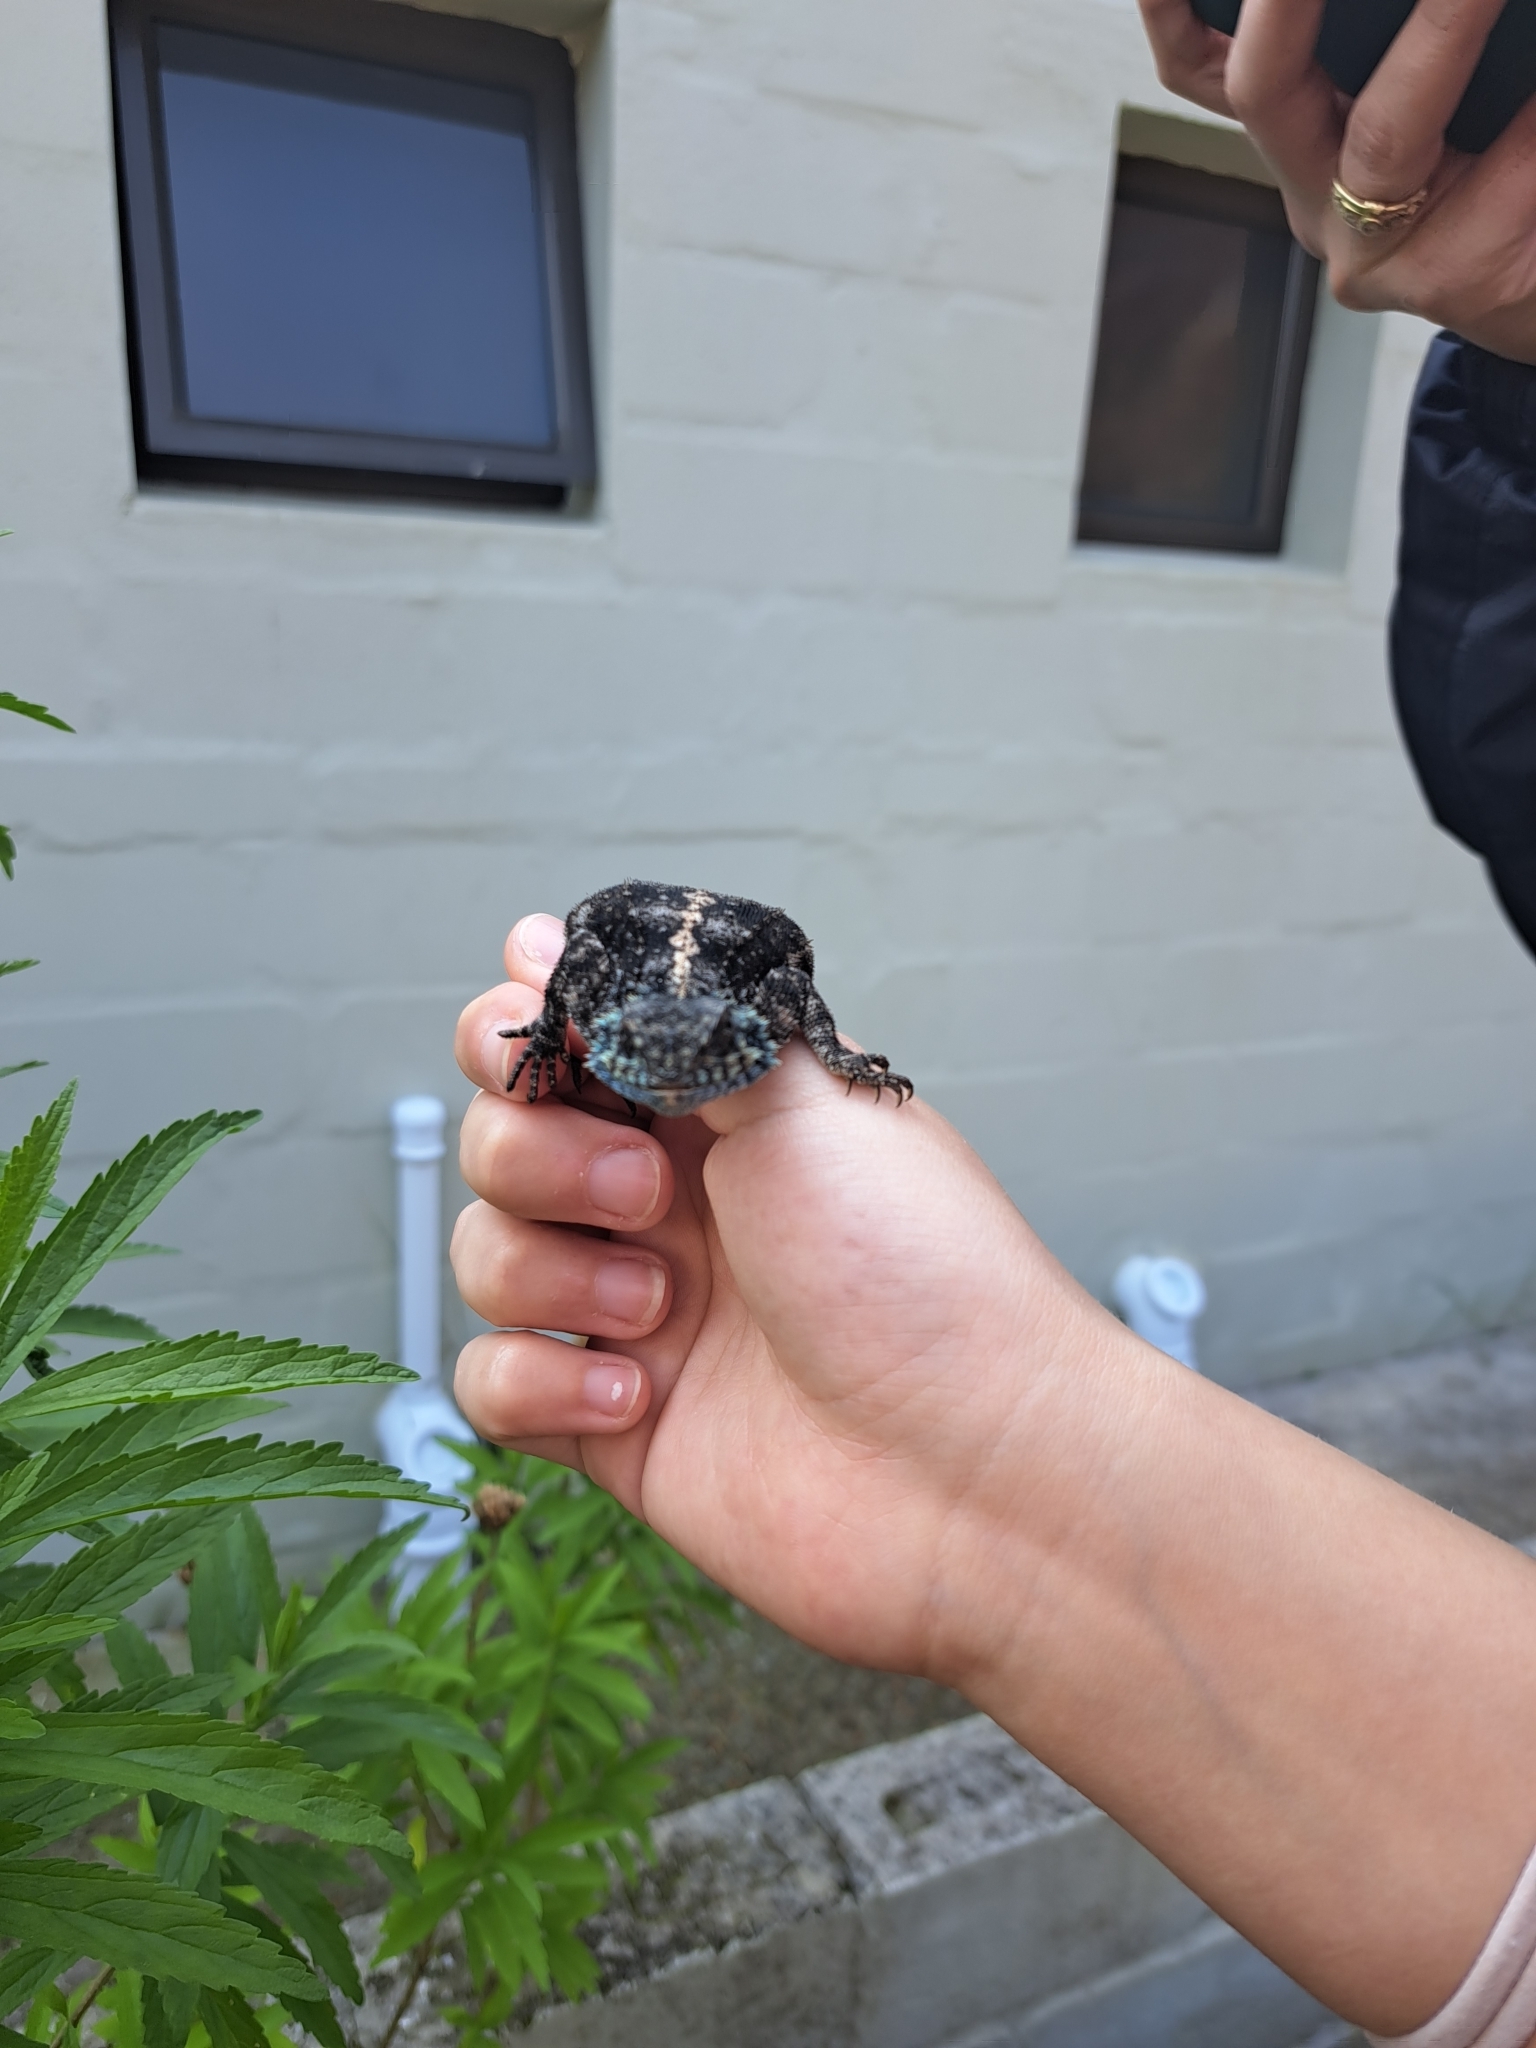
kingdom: Animalia
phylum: Chordata
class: Squamata
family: Agamidae
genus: Agama
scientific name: Agama atra
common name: Southern african rock agama
